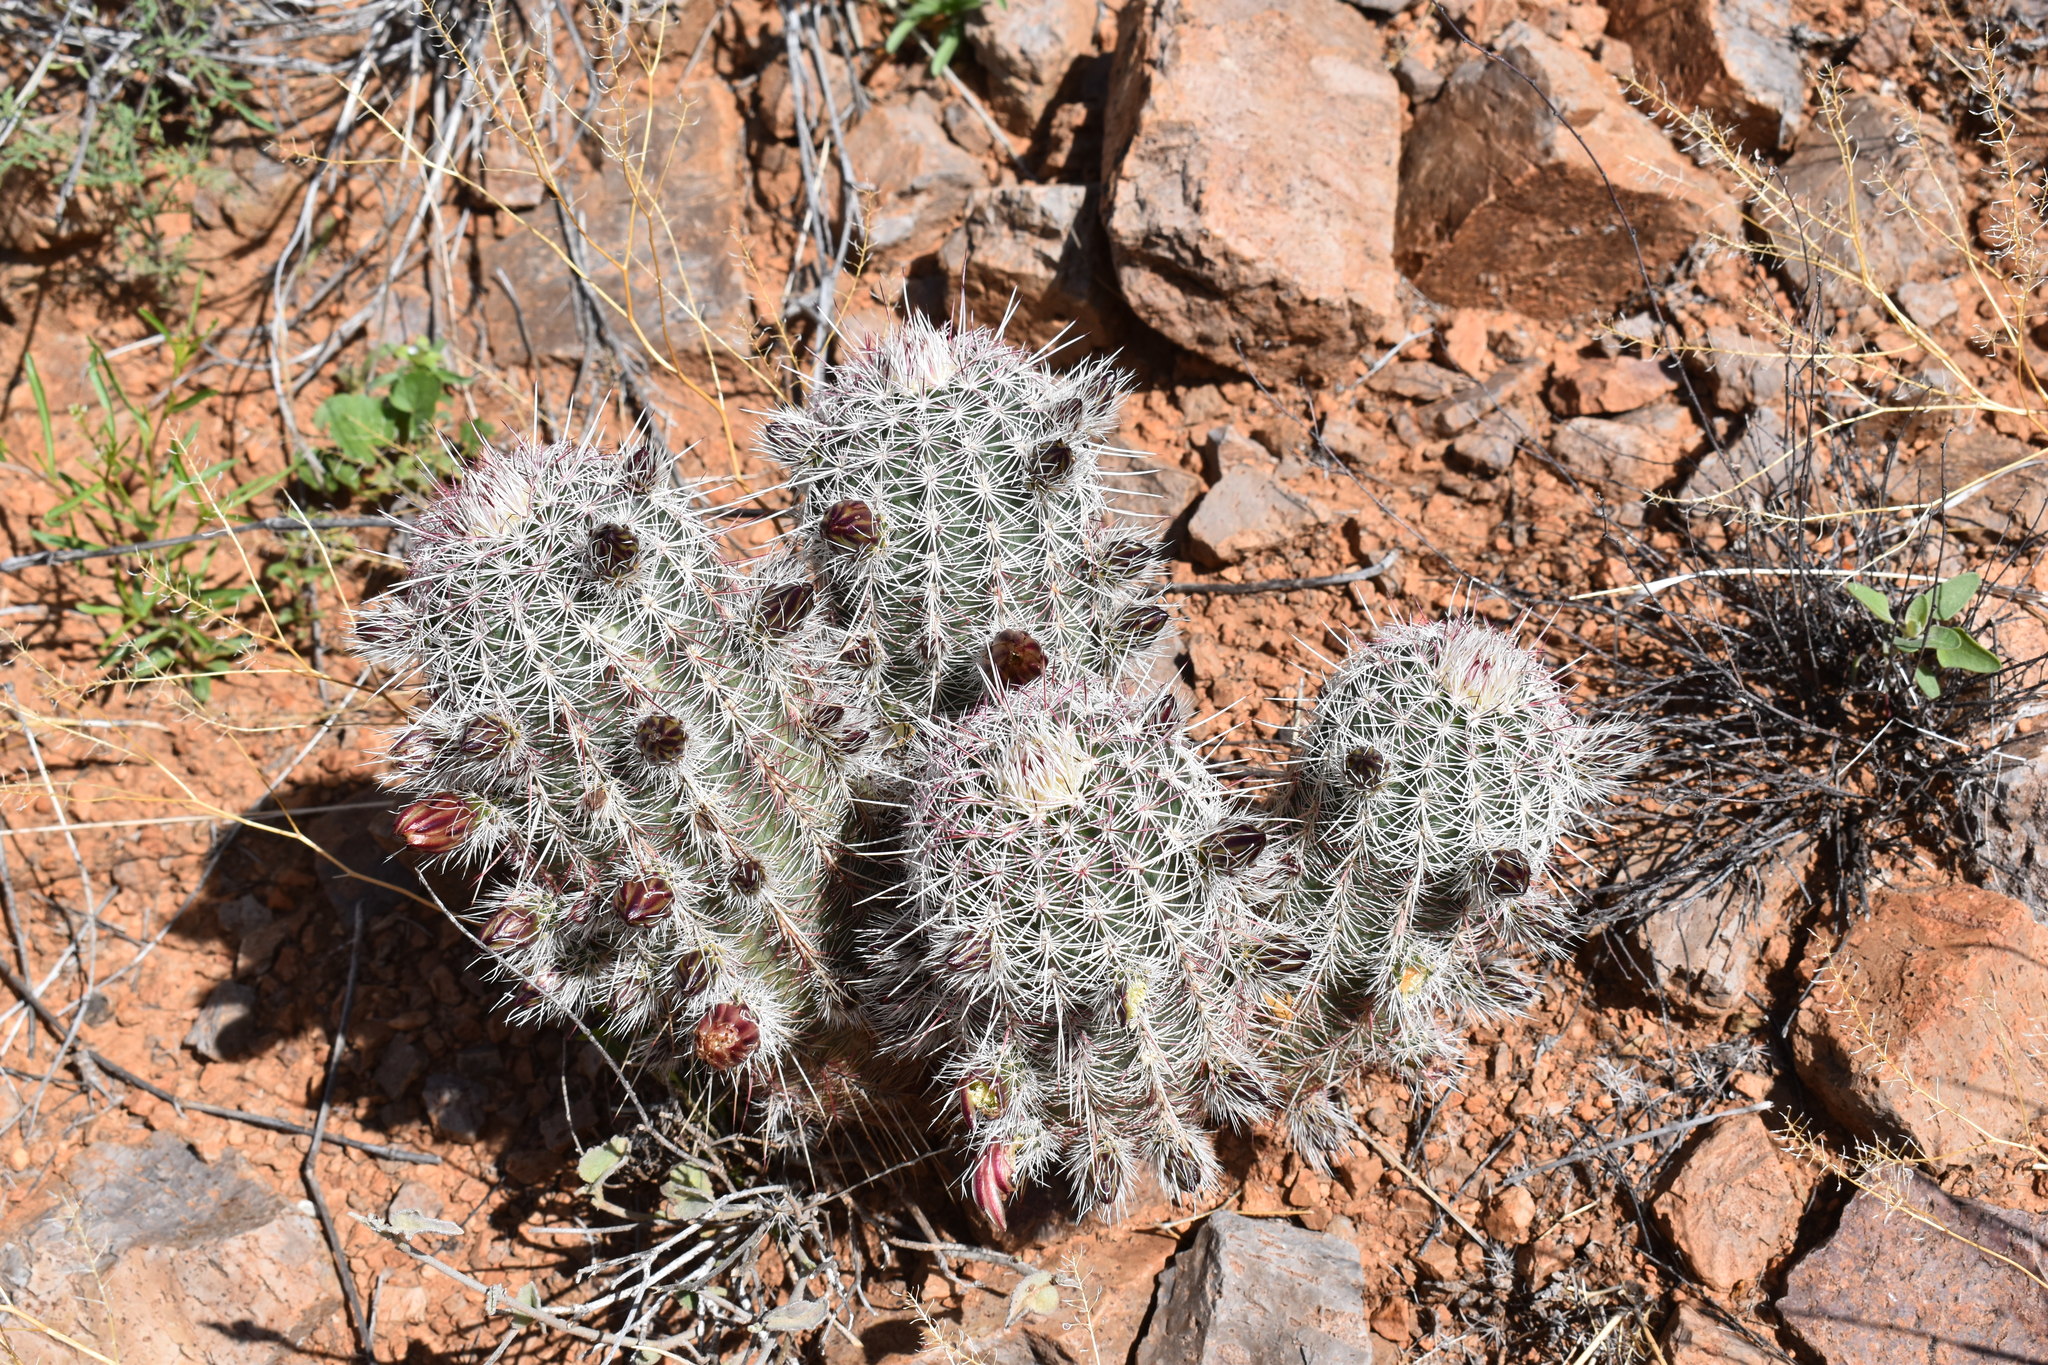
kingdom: Plantae
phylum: Tracheophyta
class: Magnoliopsida
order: Caryophyllales
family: Cactaceae
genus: Echinocereus
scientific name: Echinocereus viridiflorus
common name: Nylon hedgehog cactus
